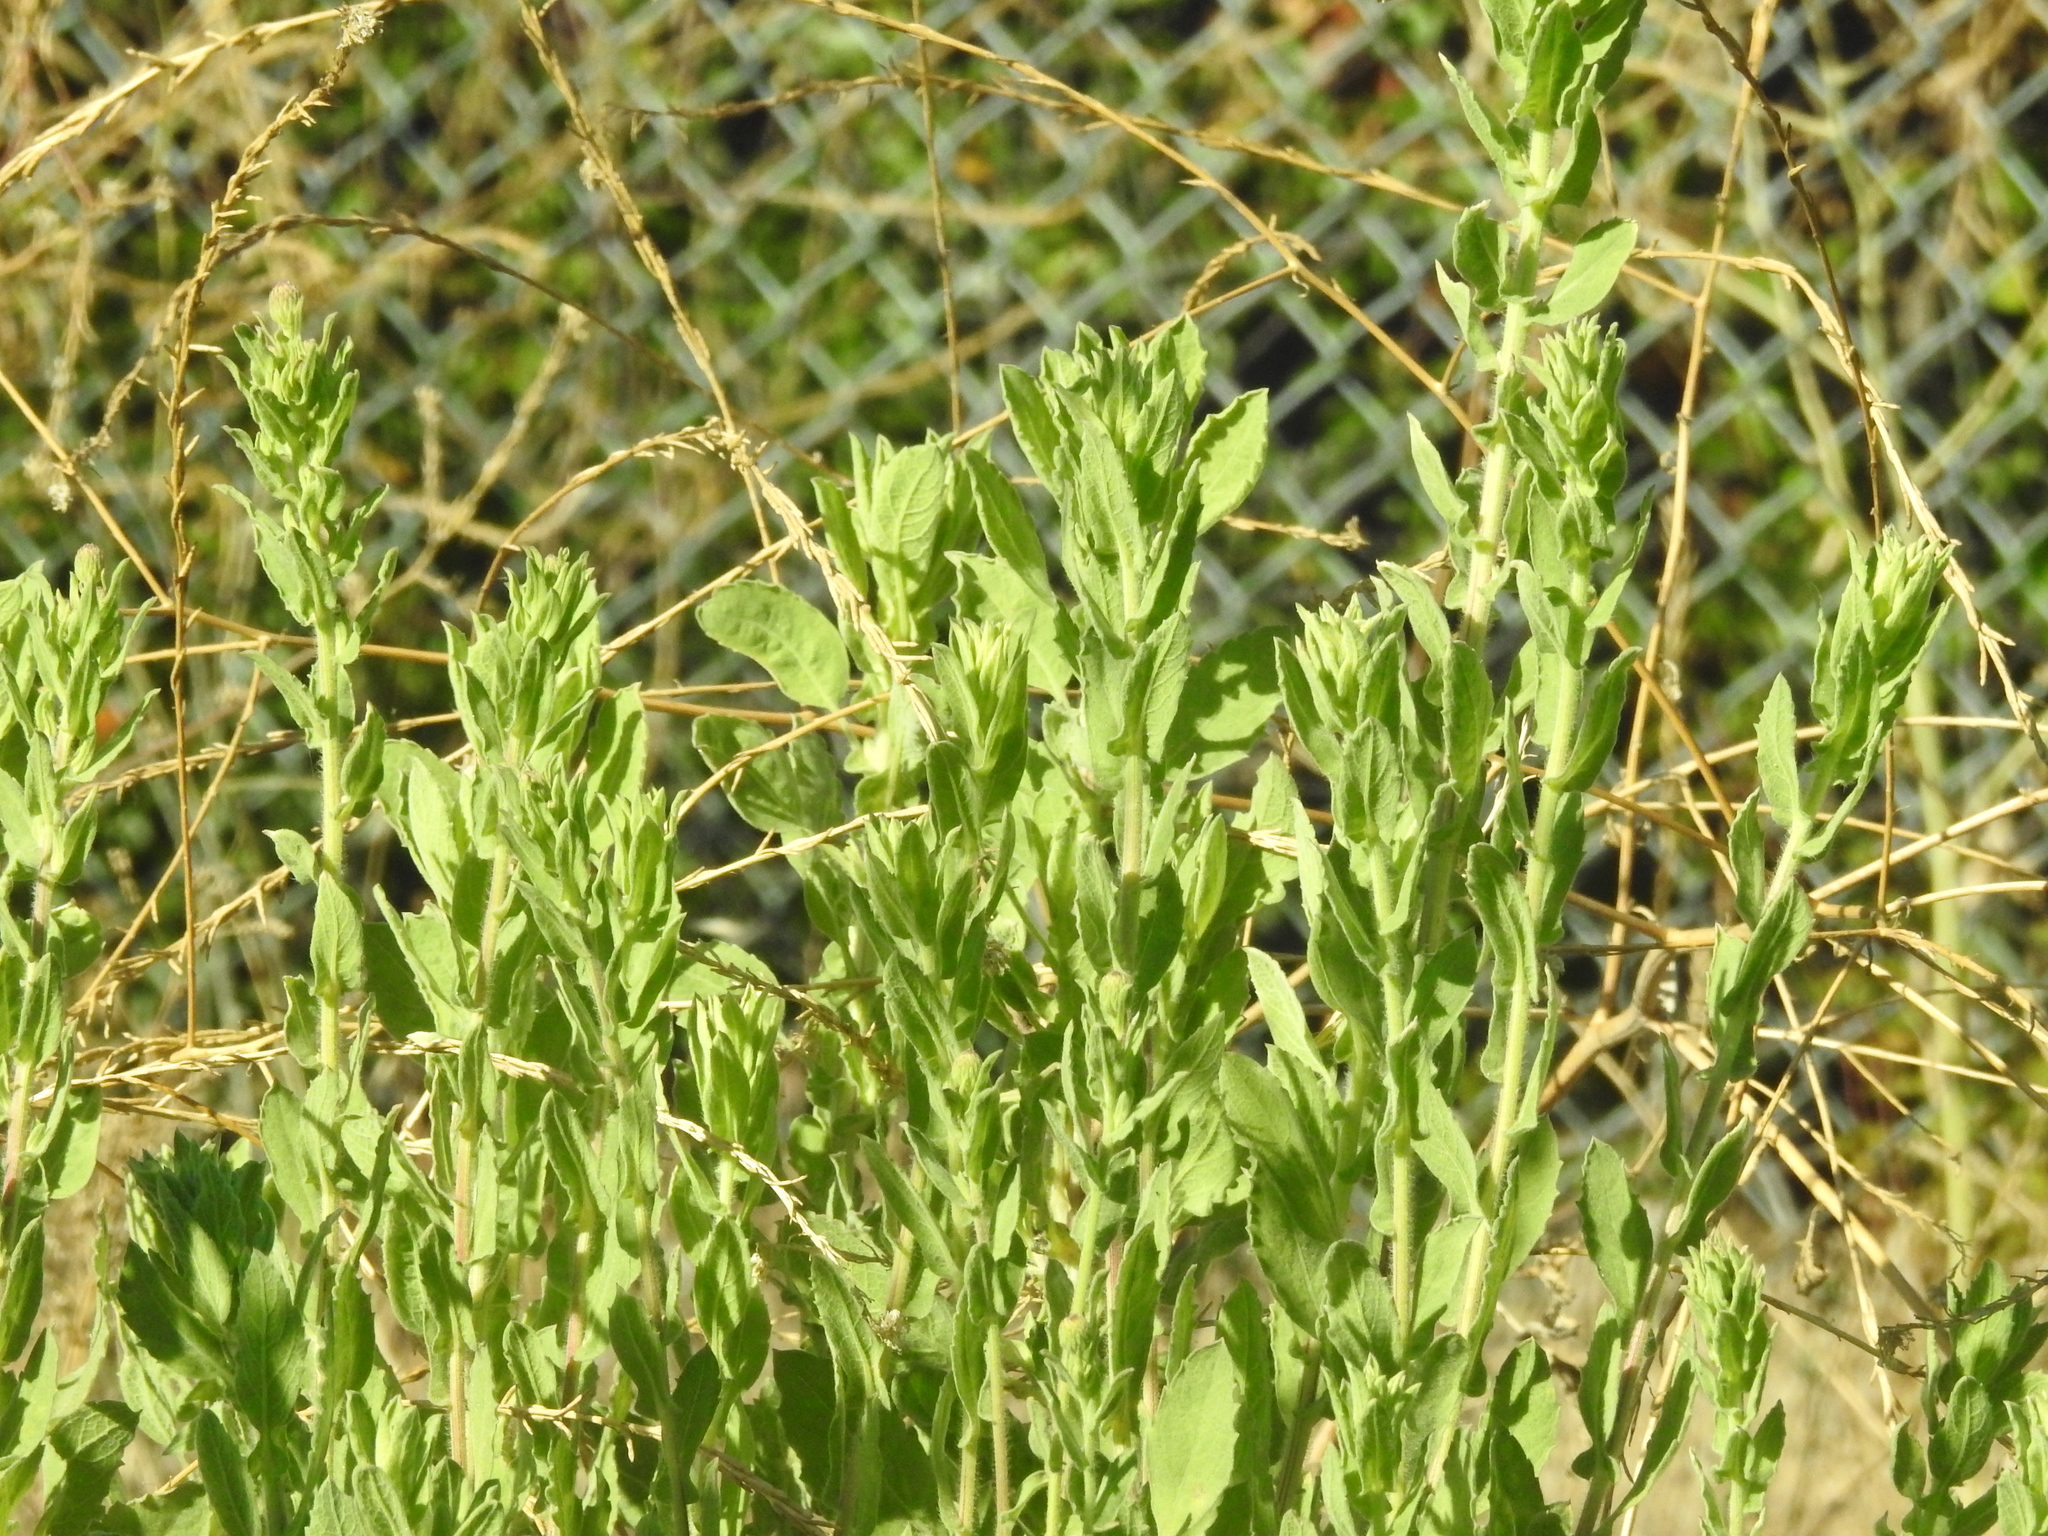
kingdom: Plantae
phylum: Tracheophyta
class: Magnoliopsida
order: Asterales
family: Asteraceae
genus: Heterotheca
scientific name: Heterotheca grandiflora
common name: Telegraphweed
